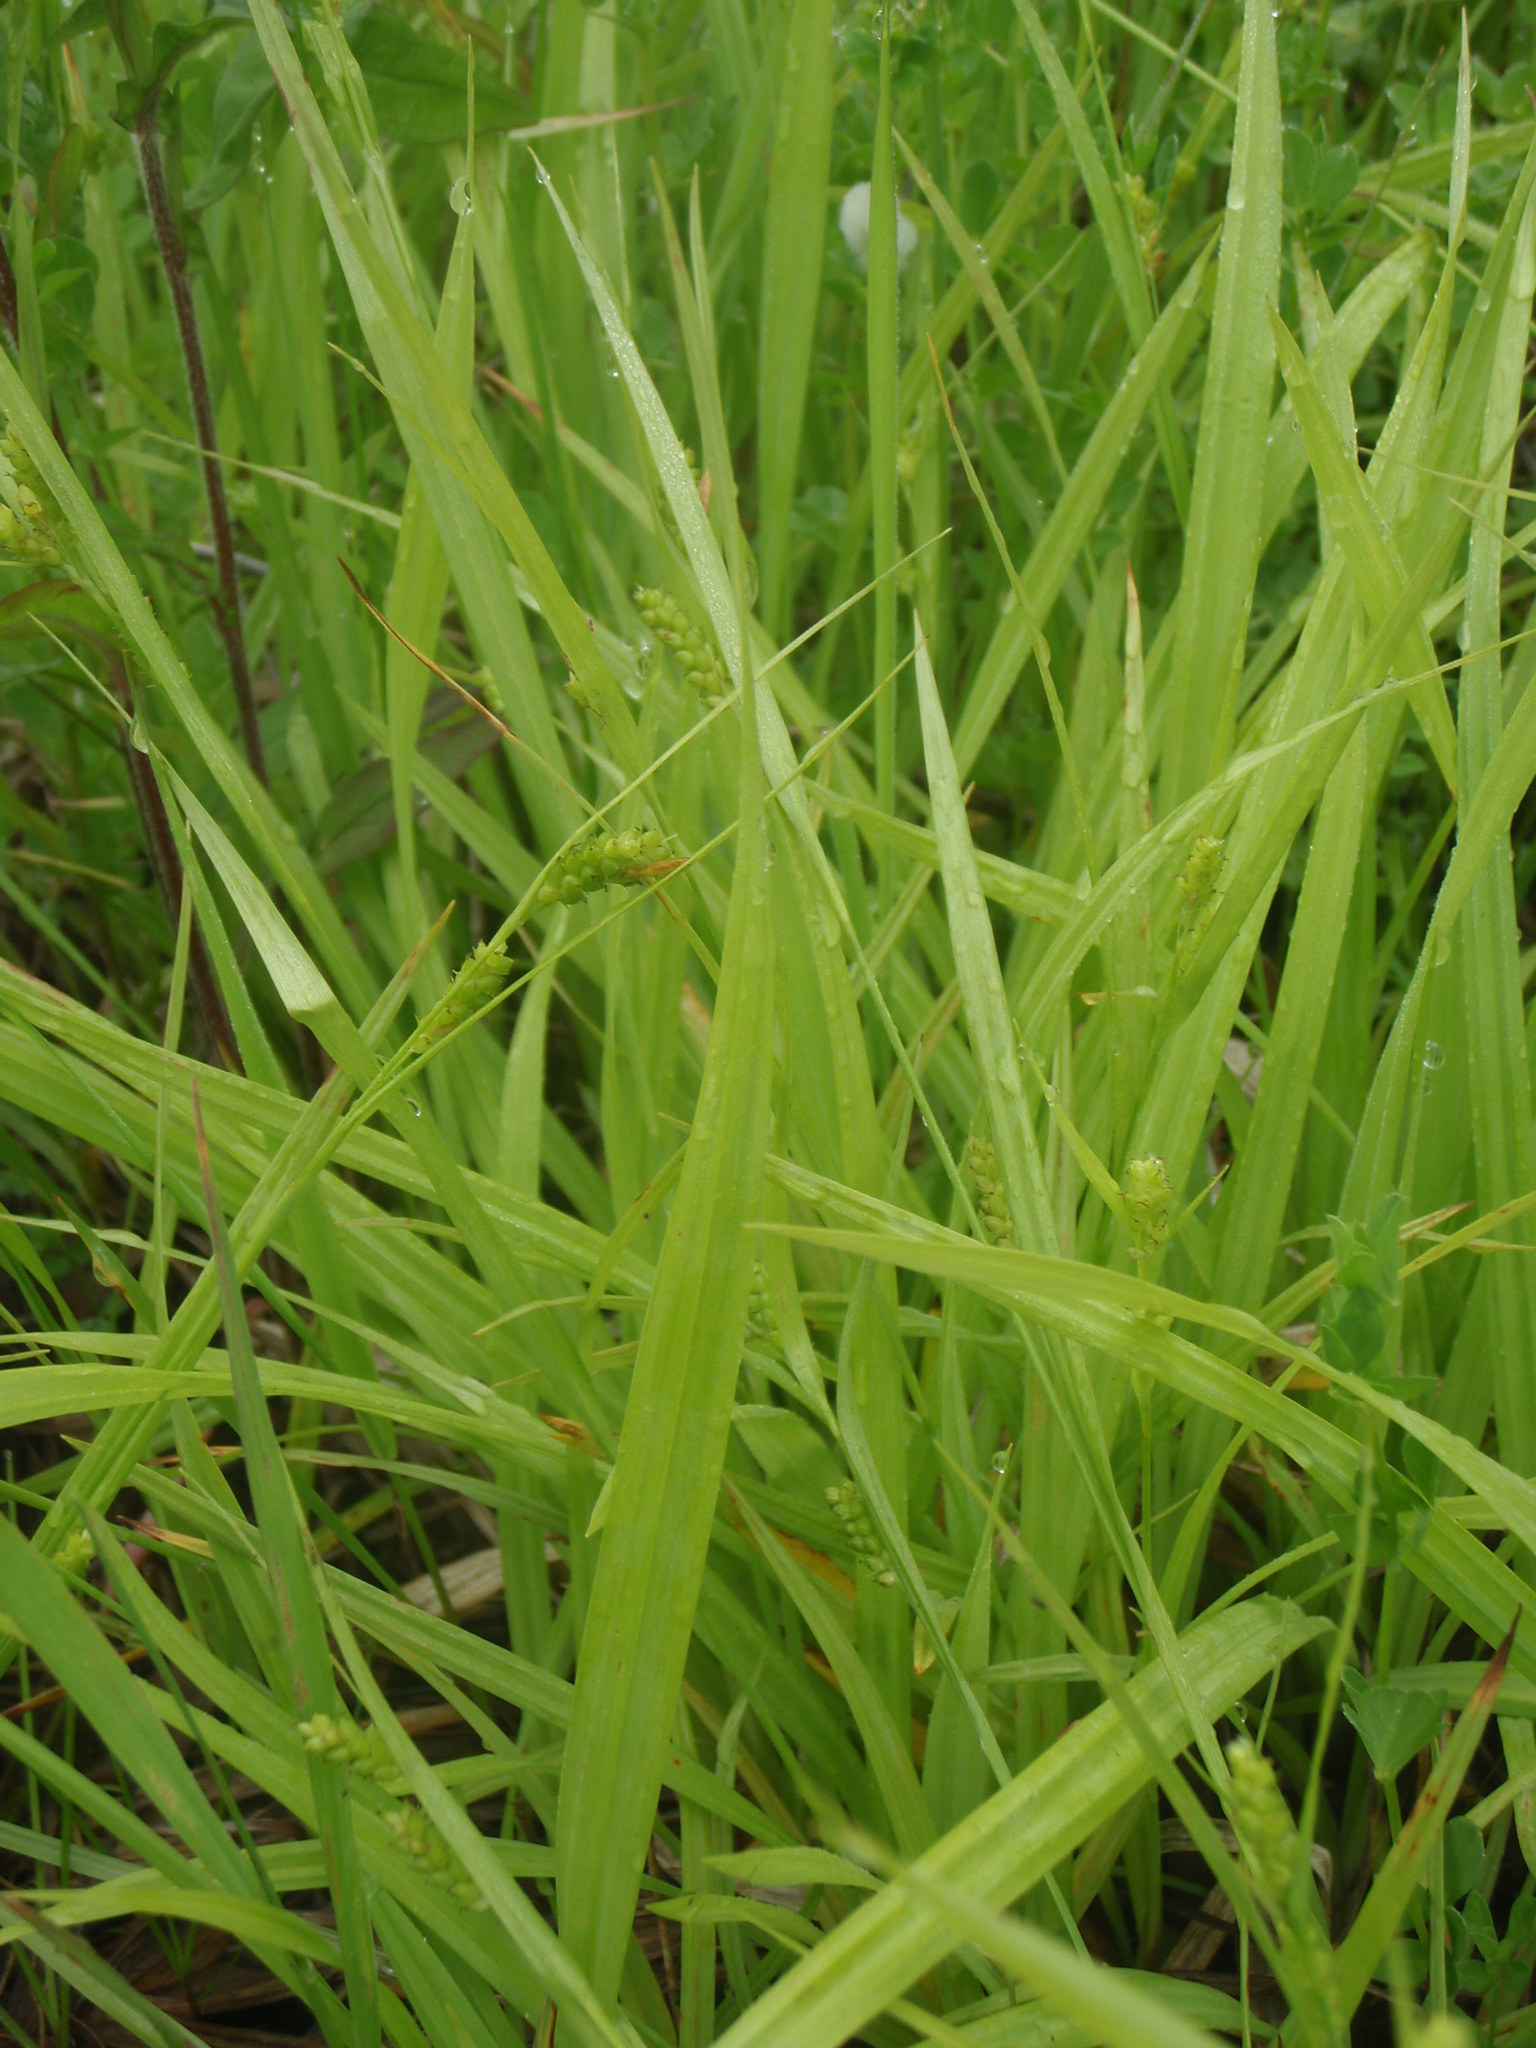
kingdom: Plantae
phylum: Tracheophyta
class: Liliopsida
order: Poales
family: Cyperaceae
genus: Carex
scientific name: Carex granularis
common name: Granular sedge
